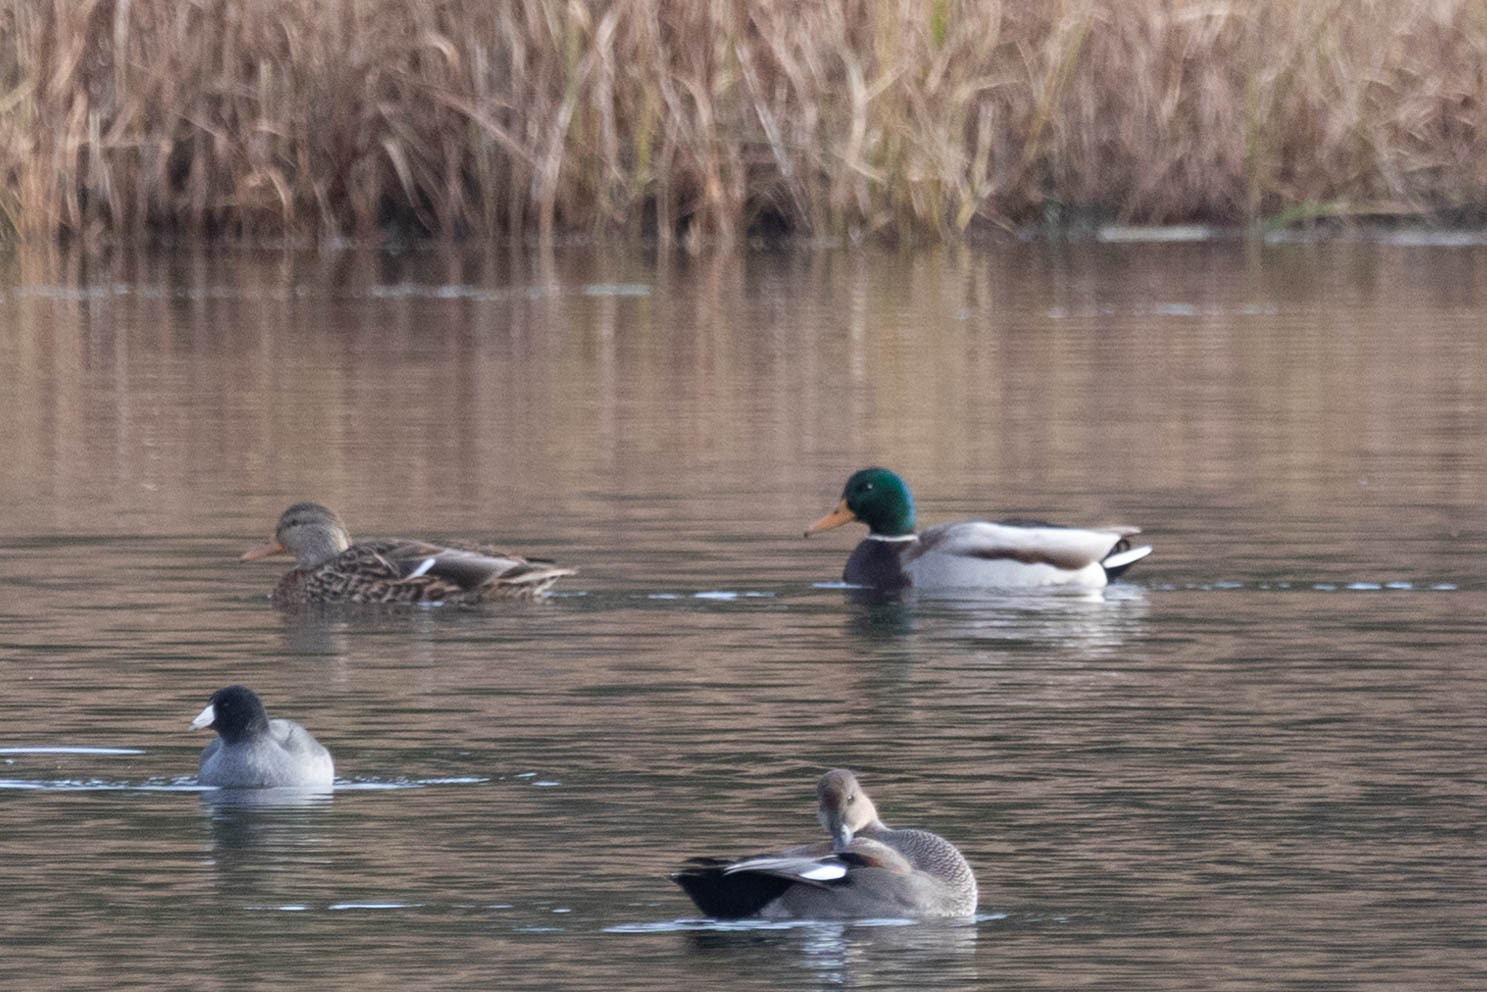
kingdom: Animalia
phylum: Chordata
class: Aves
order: Anseriformes
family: Anatidae
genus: Anas
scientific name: Anas platyrhynchos
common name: Mallard
